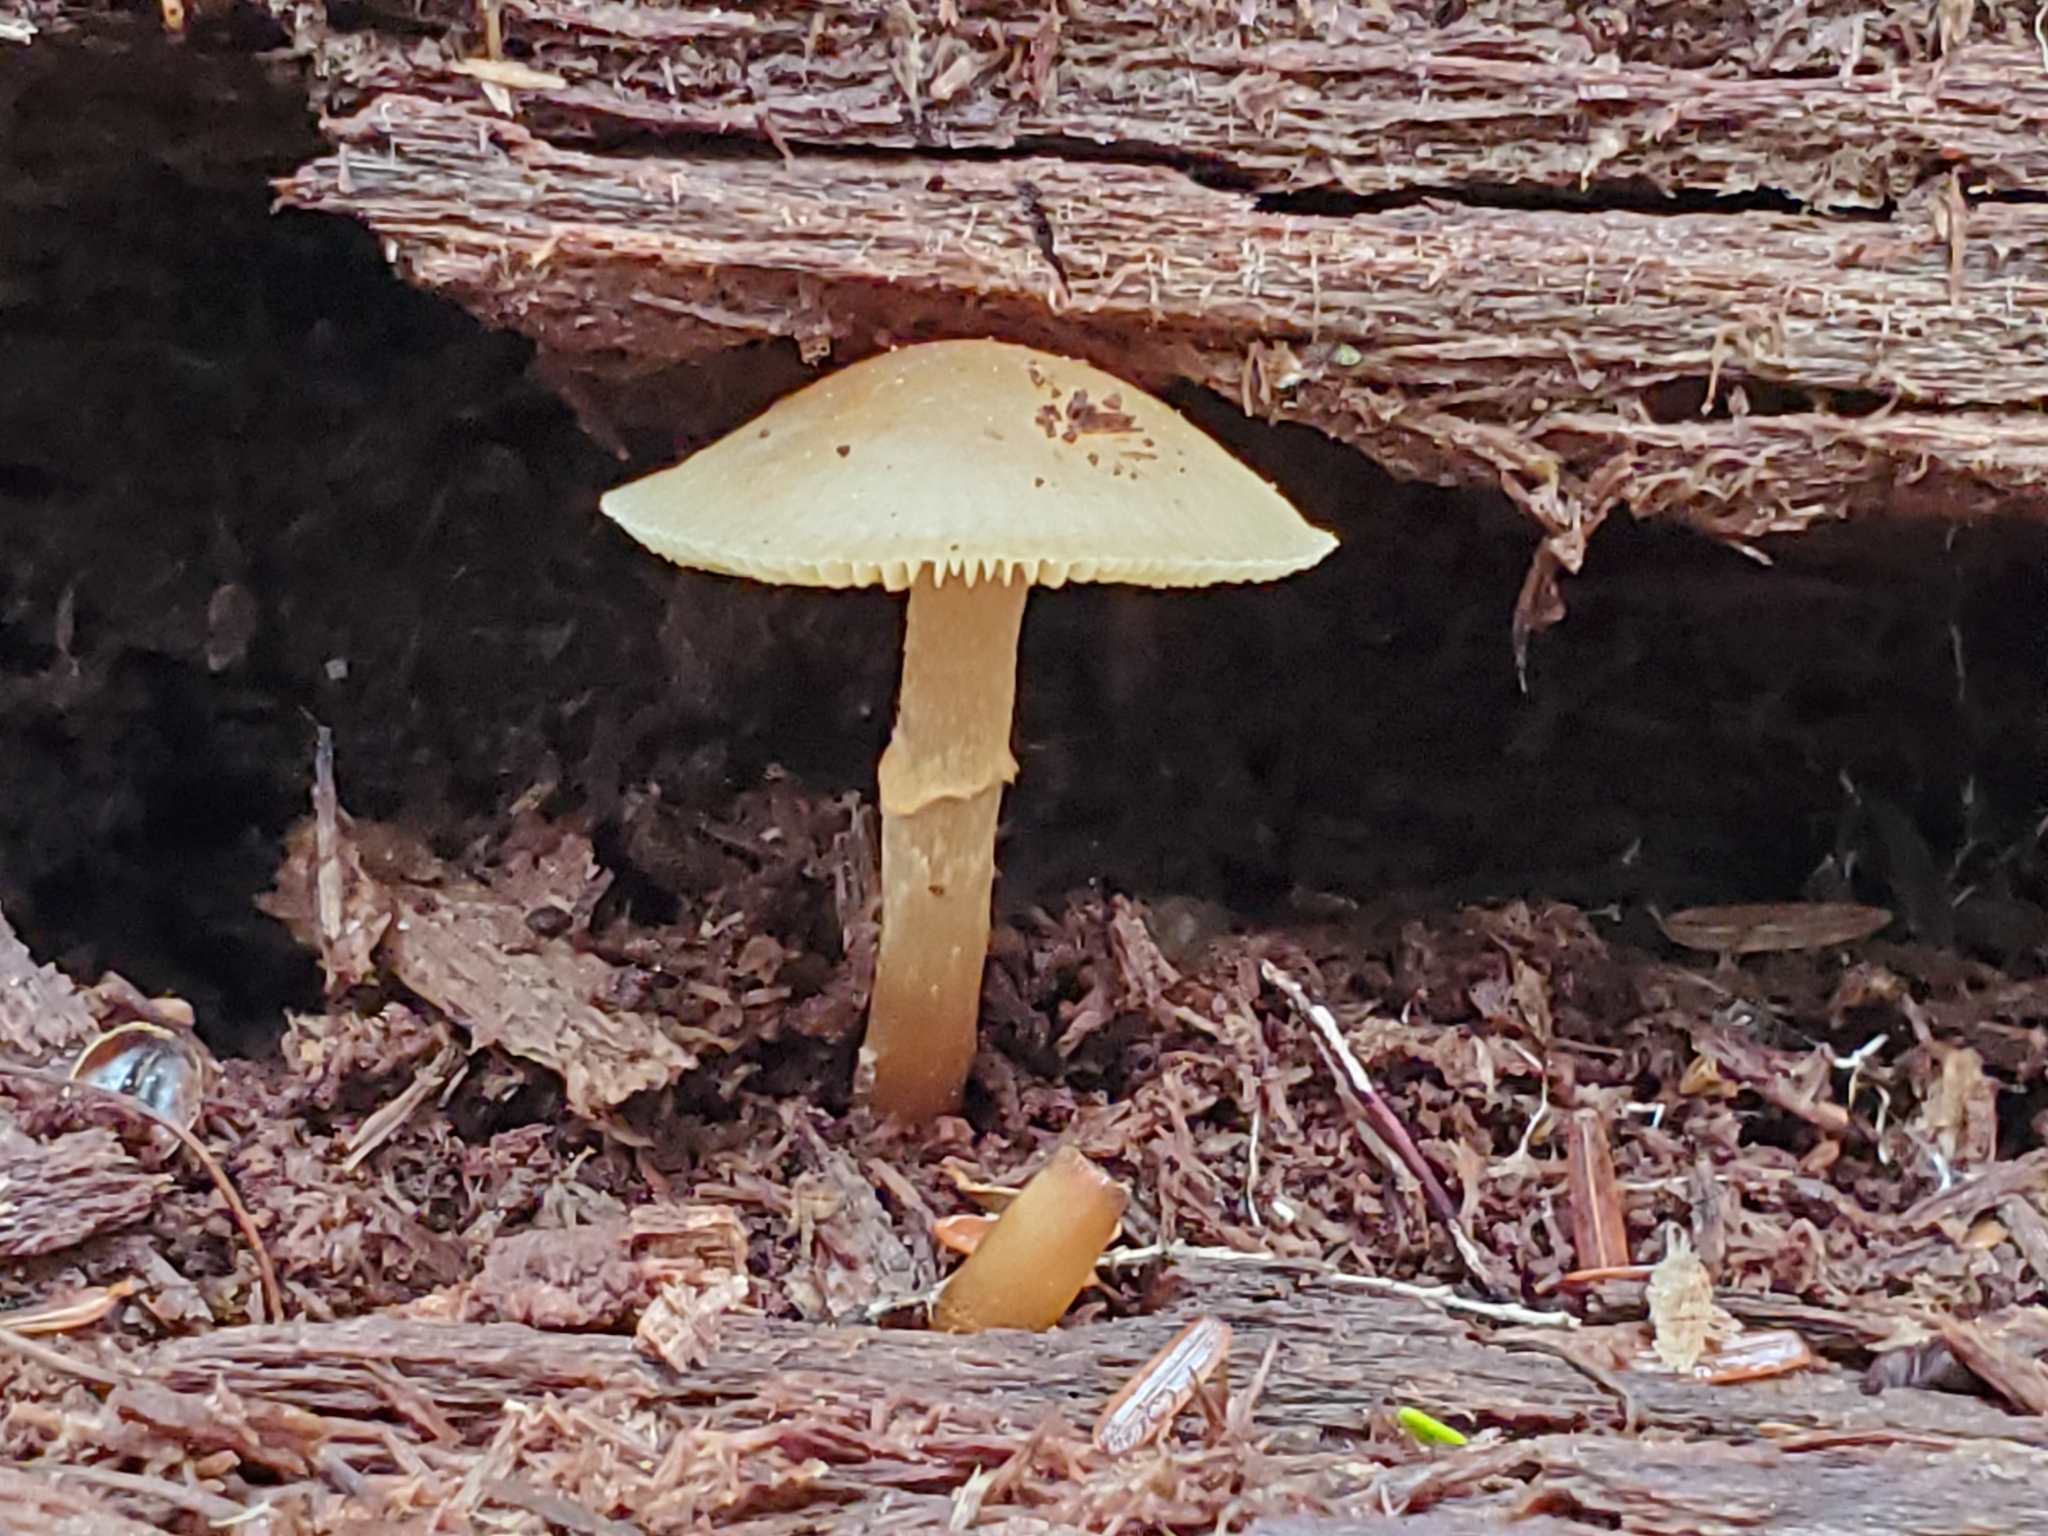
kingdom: Fungi
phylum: Basidiomycota
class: Agaricomycetes
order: Agaricales
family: Strophariaceae
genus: Kuehneromyces
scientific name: Kuehneromyces marginellus
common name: Sheathed woodtuft
